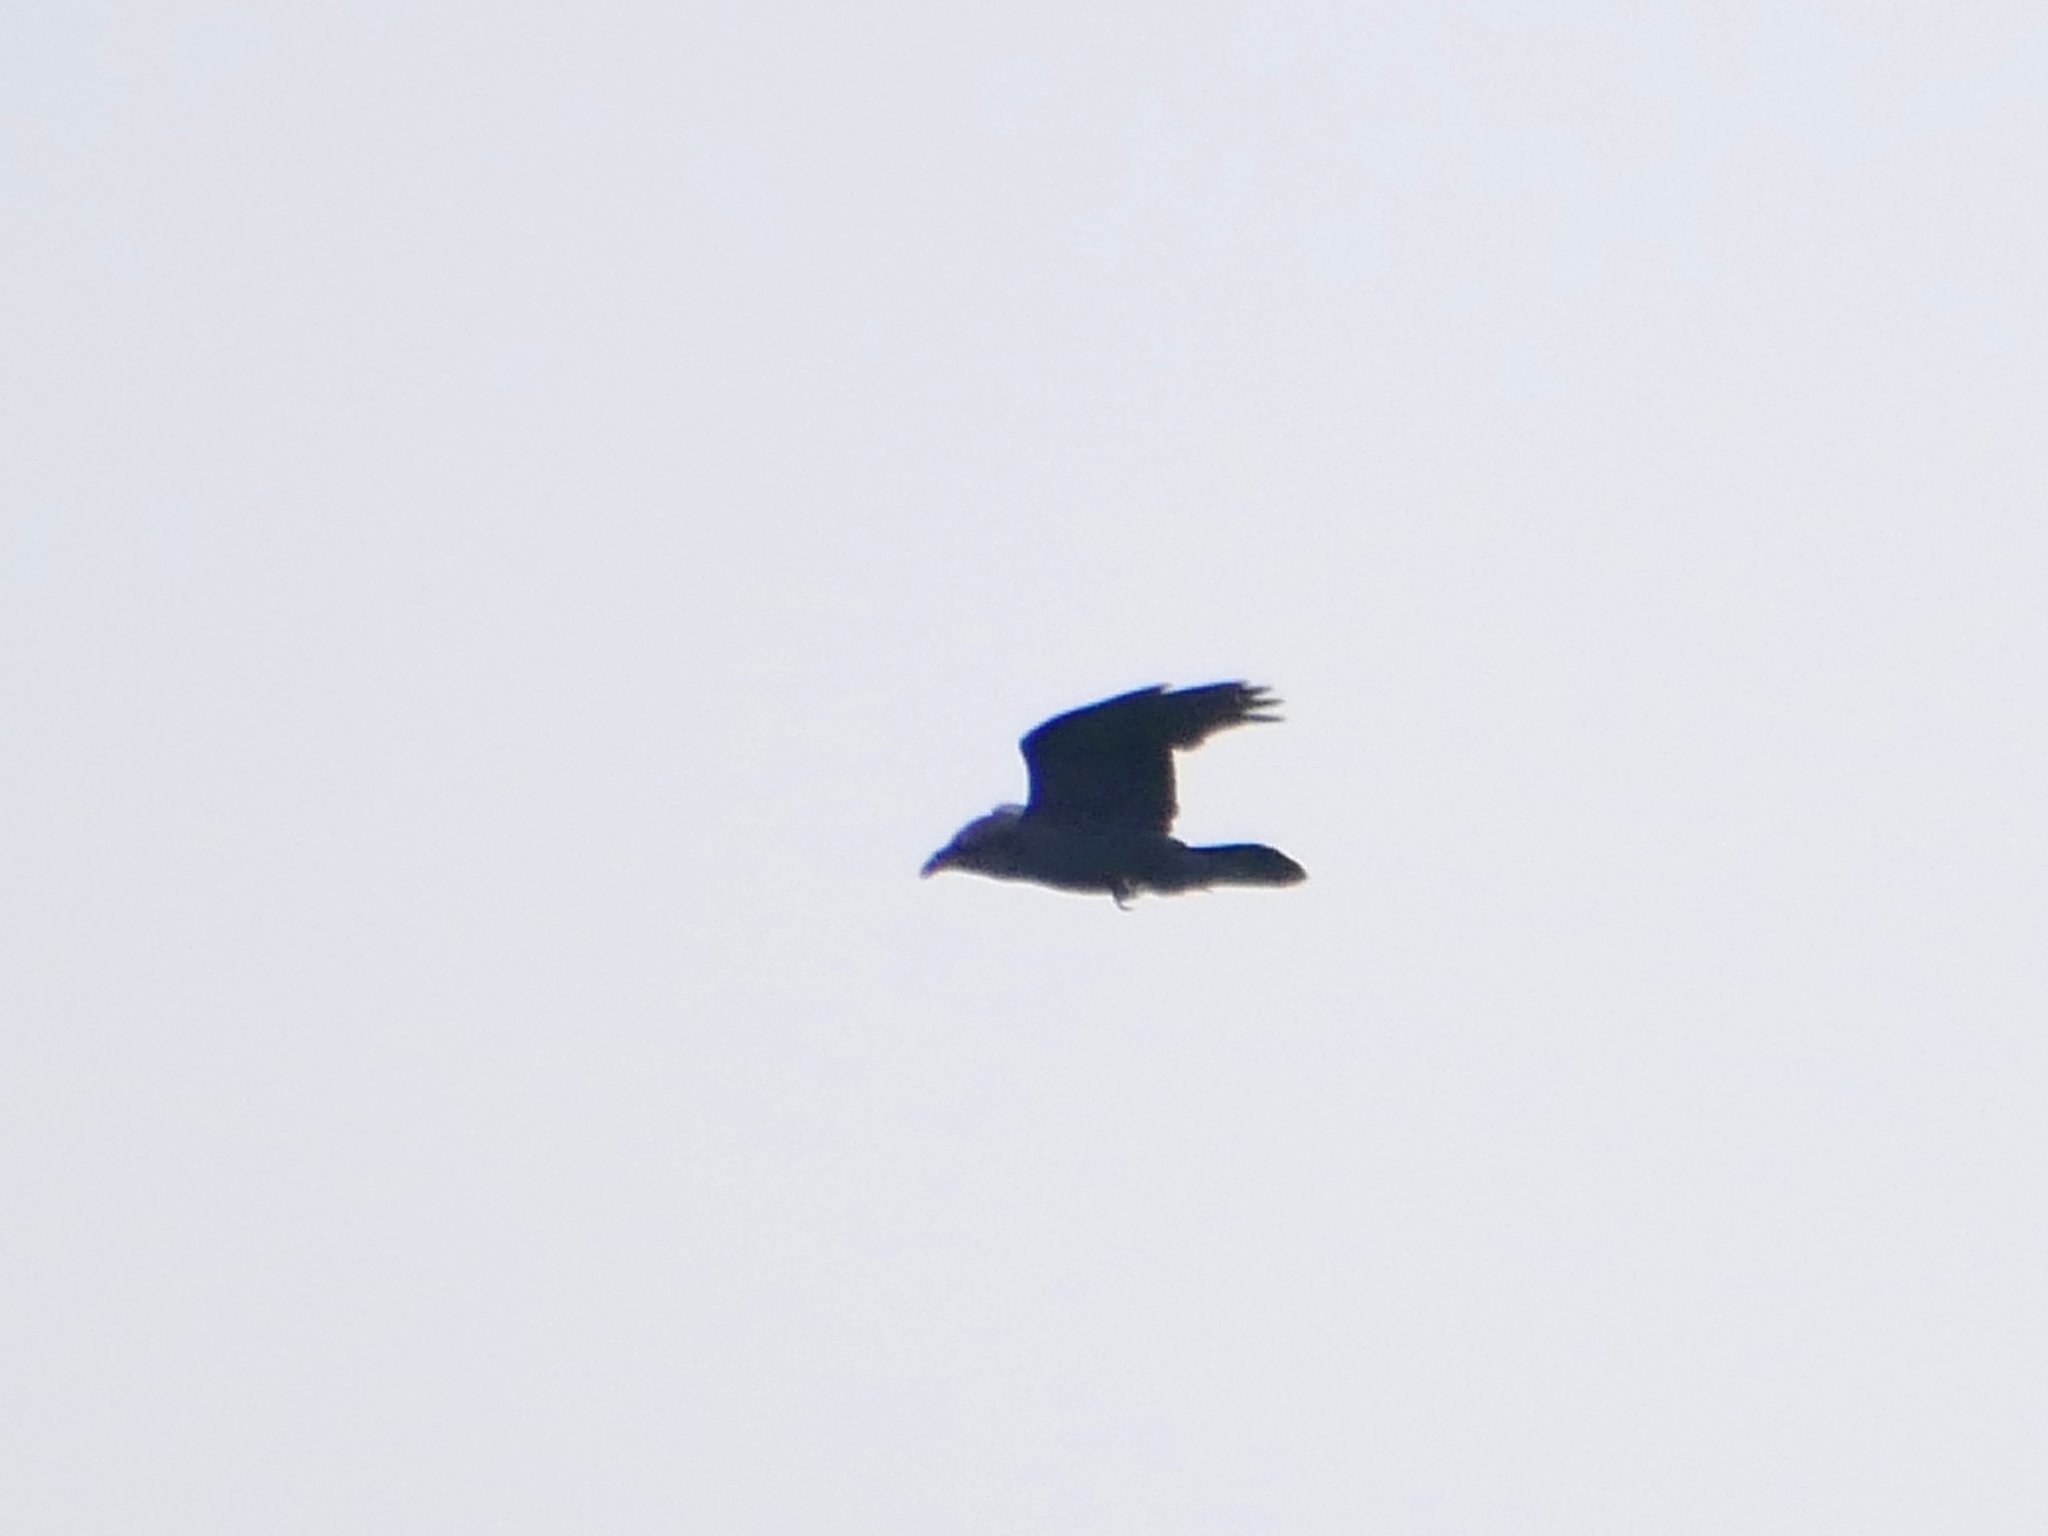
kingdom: Animalia
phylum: Chordata
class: Aves
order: Passeriformes
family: Corvidae
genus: Corvus
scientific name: Corvus corax
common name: Common raven
